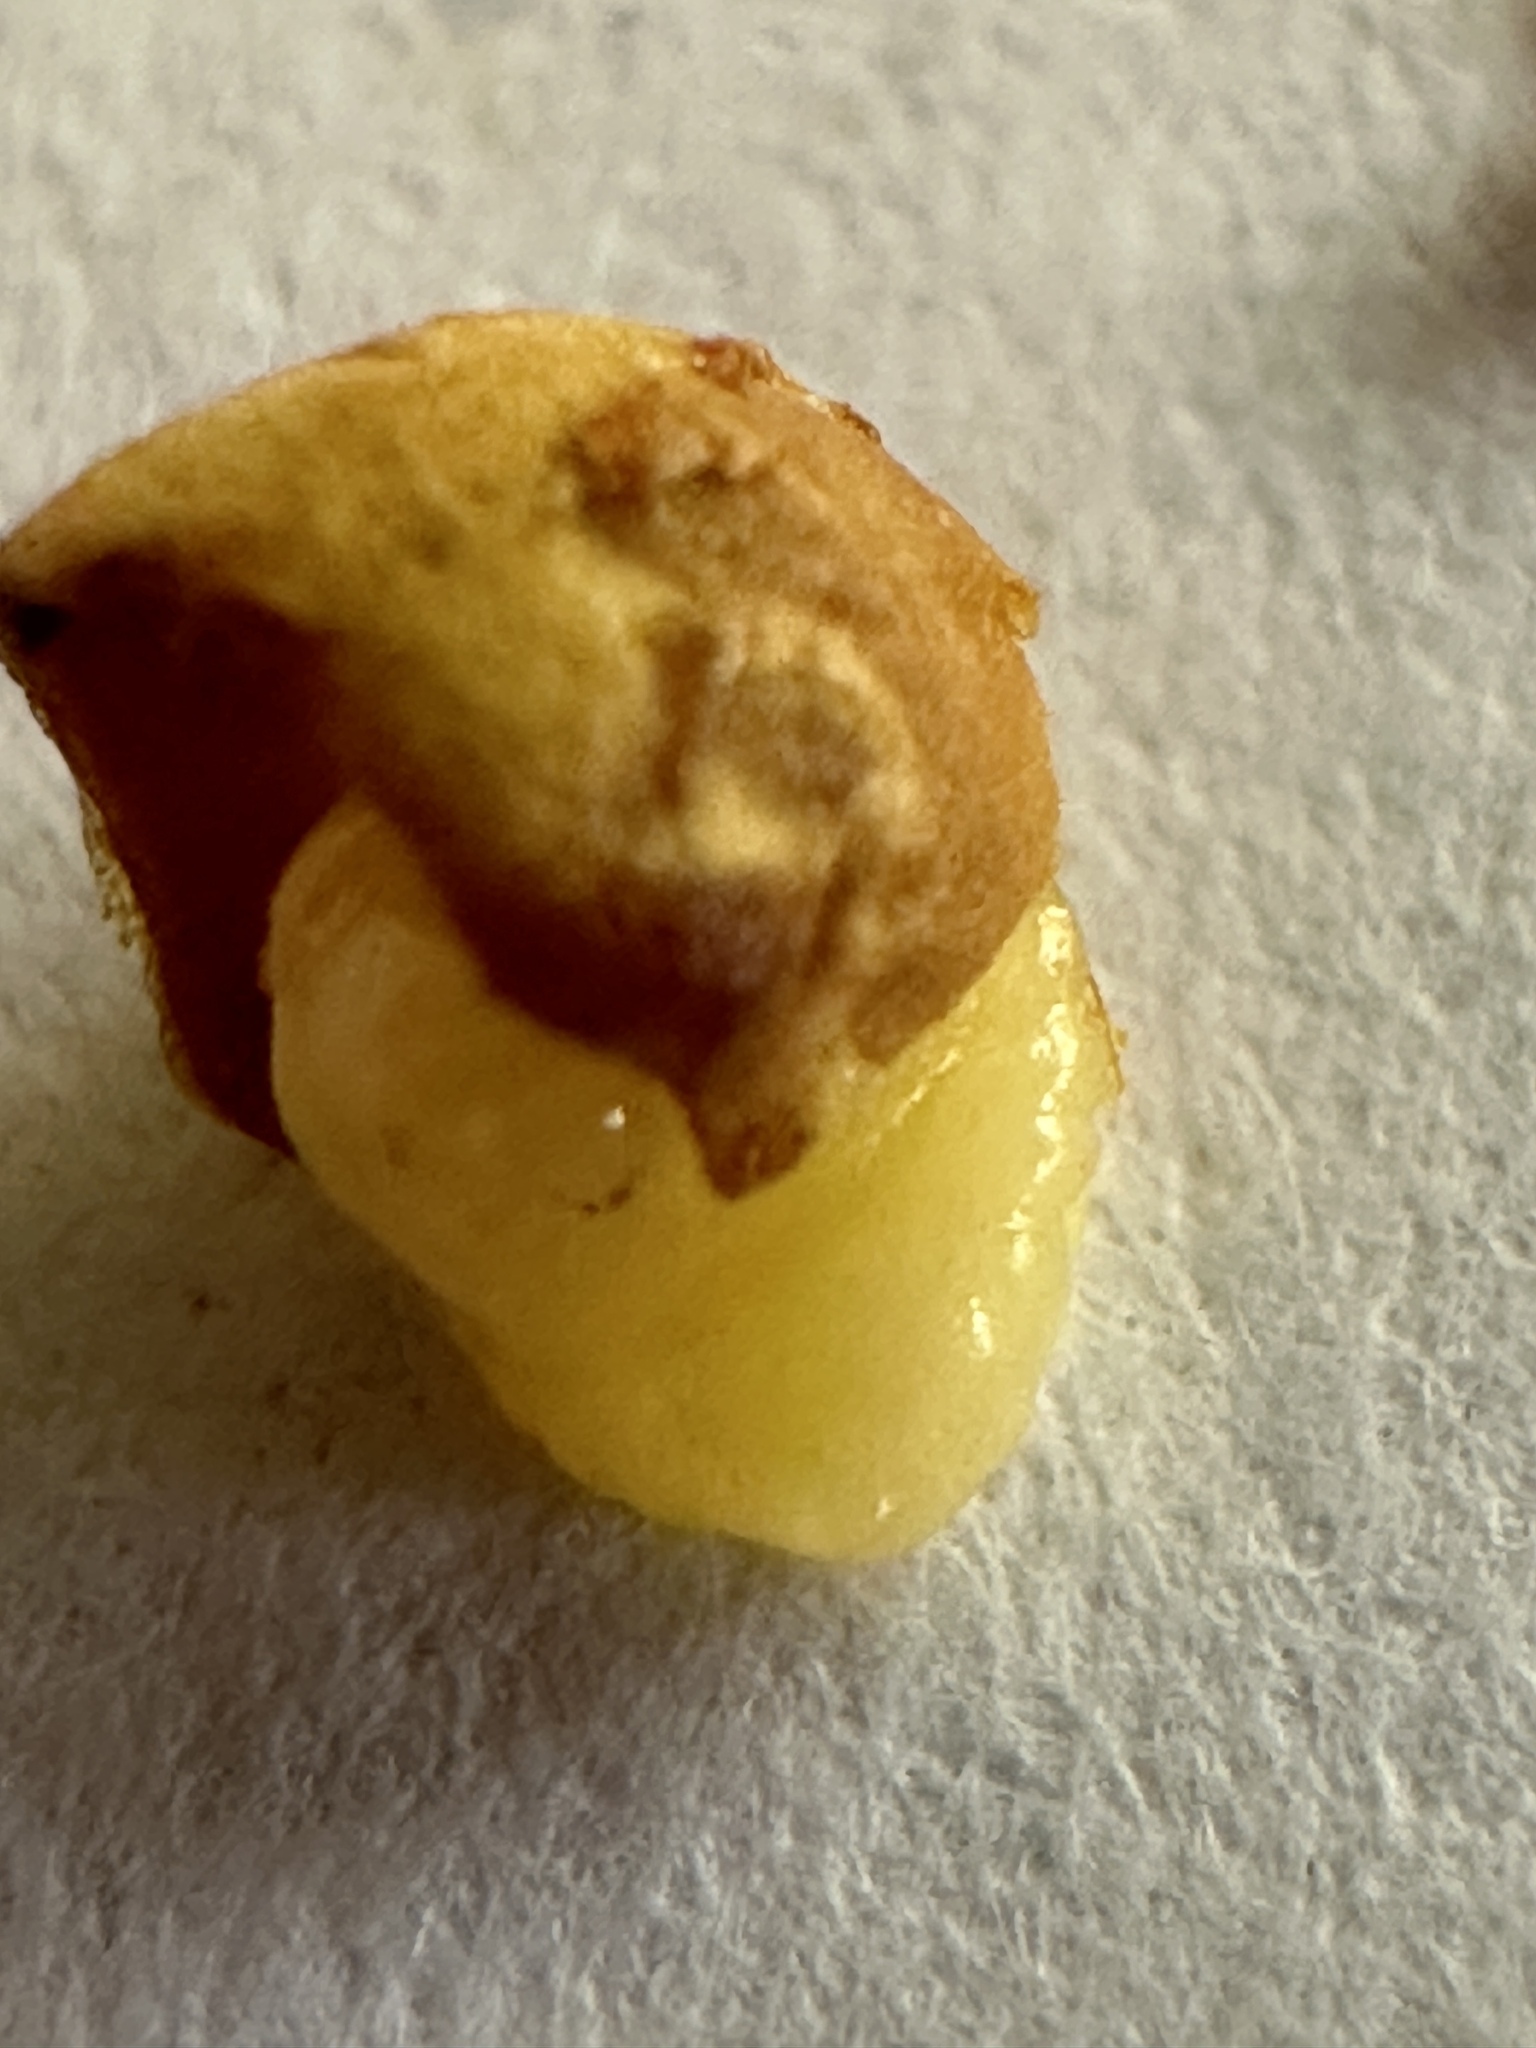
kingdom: Animalia
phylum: Arthropoda
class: Insecta
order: Hymenoptera
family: Cynipidae
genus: Andricus
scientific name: Andricus quercuscalicis
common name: Knopper gall
